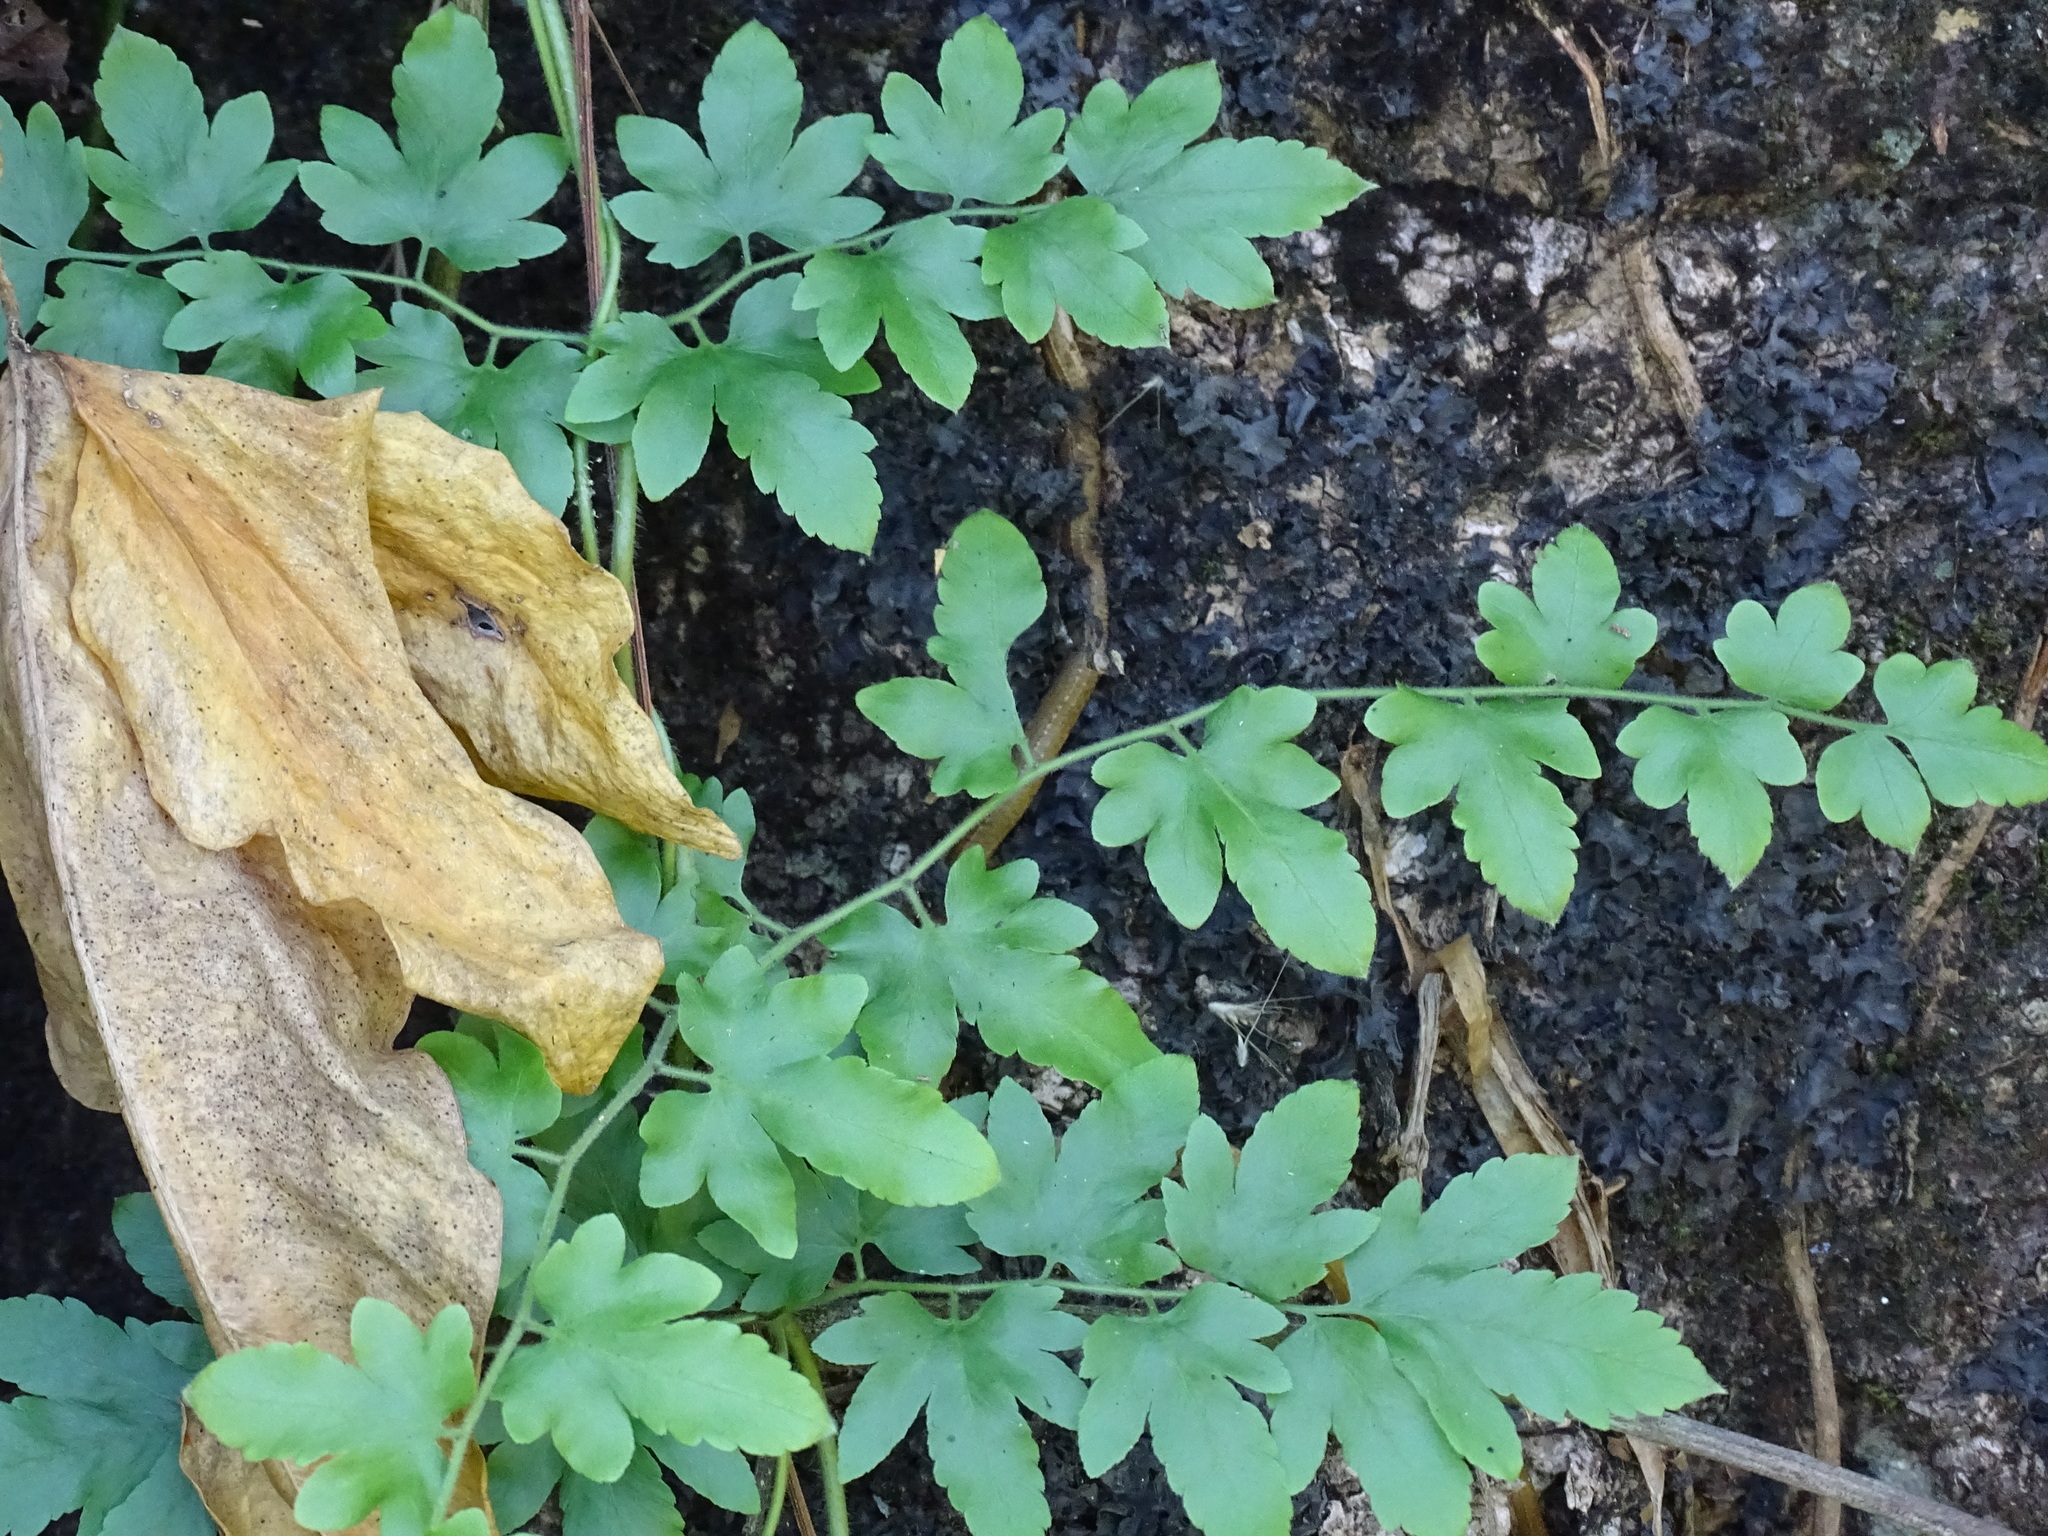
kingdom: Plantae
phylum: Tracheophyta
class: Polypodiopsida
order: Schizaeales
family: Lygodiaceae
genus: Lygodium
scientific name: Lygodium venustum
